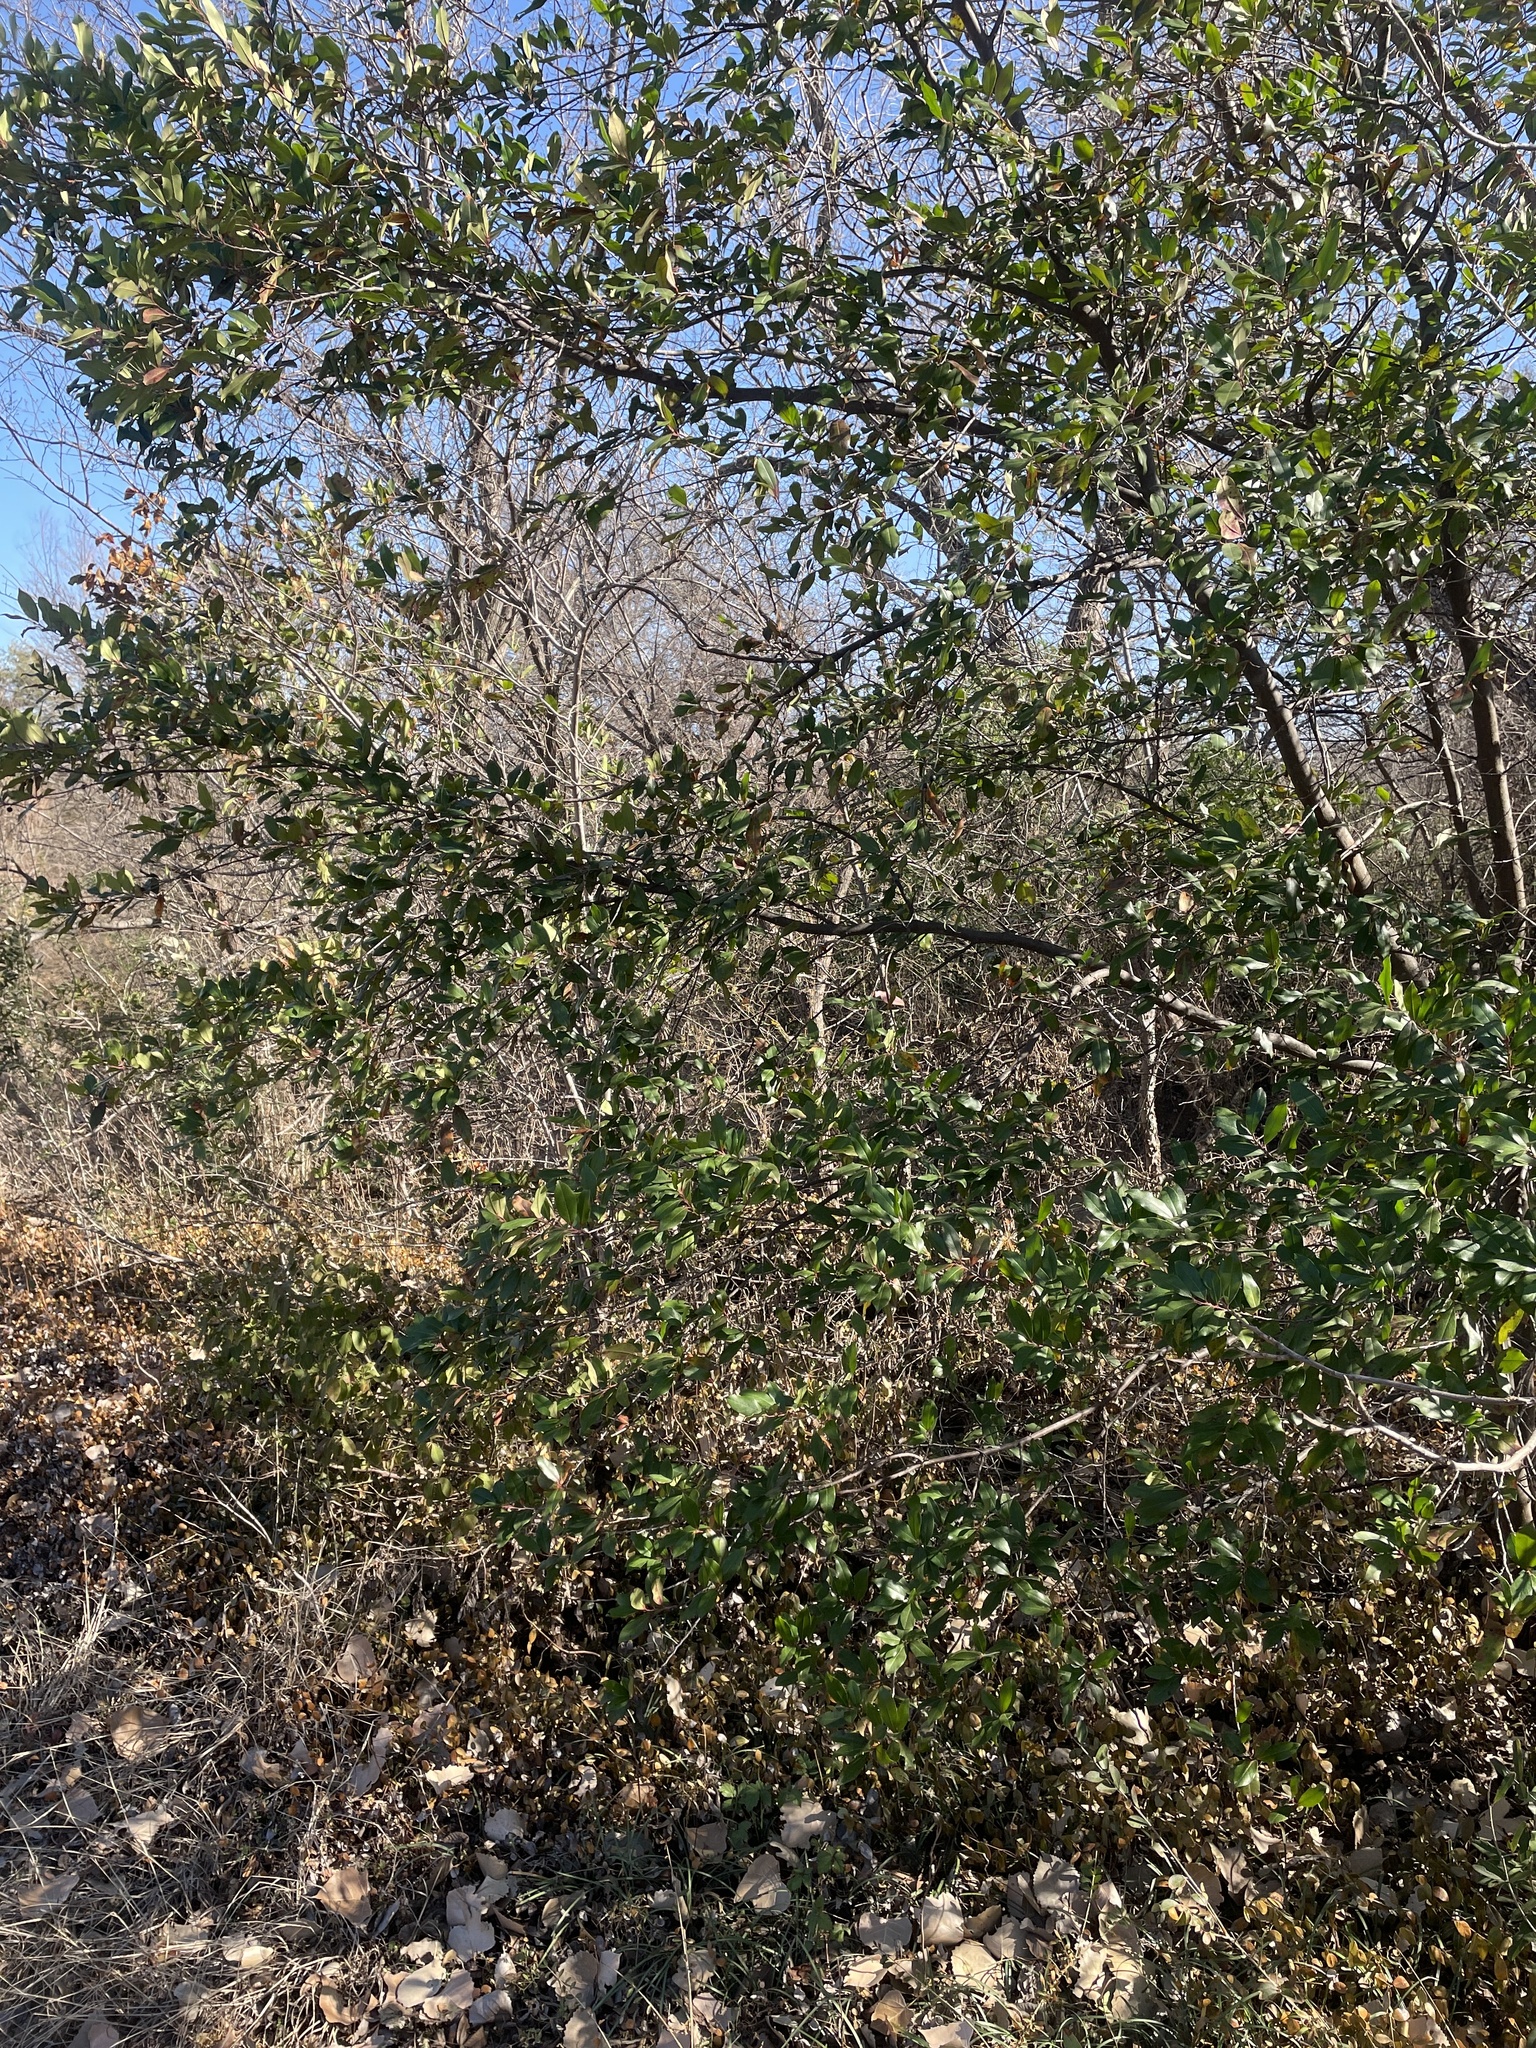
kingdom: Plantae
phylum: Tracheophyta
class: Magnoliopsida
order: Rosales
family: Rosaceae
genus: Prunus
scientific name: Prunus caroliniana
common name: Carolina laurel cherry
